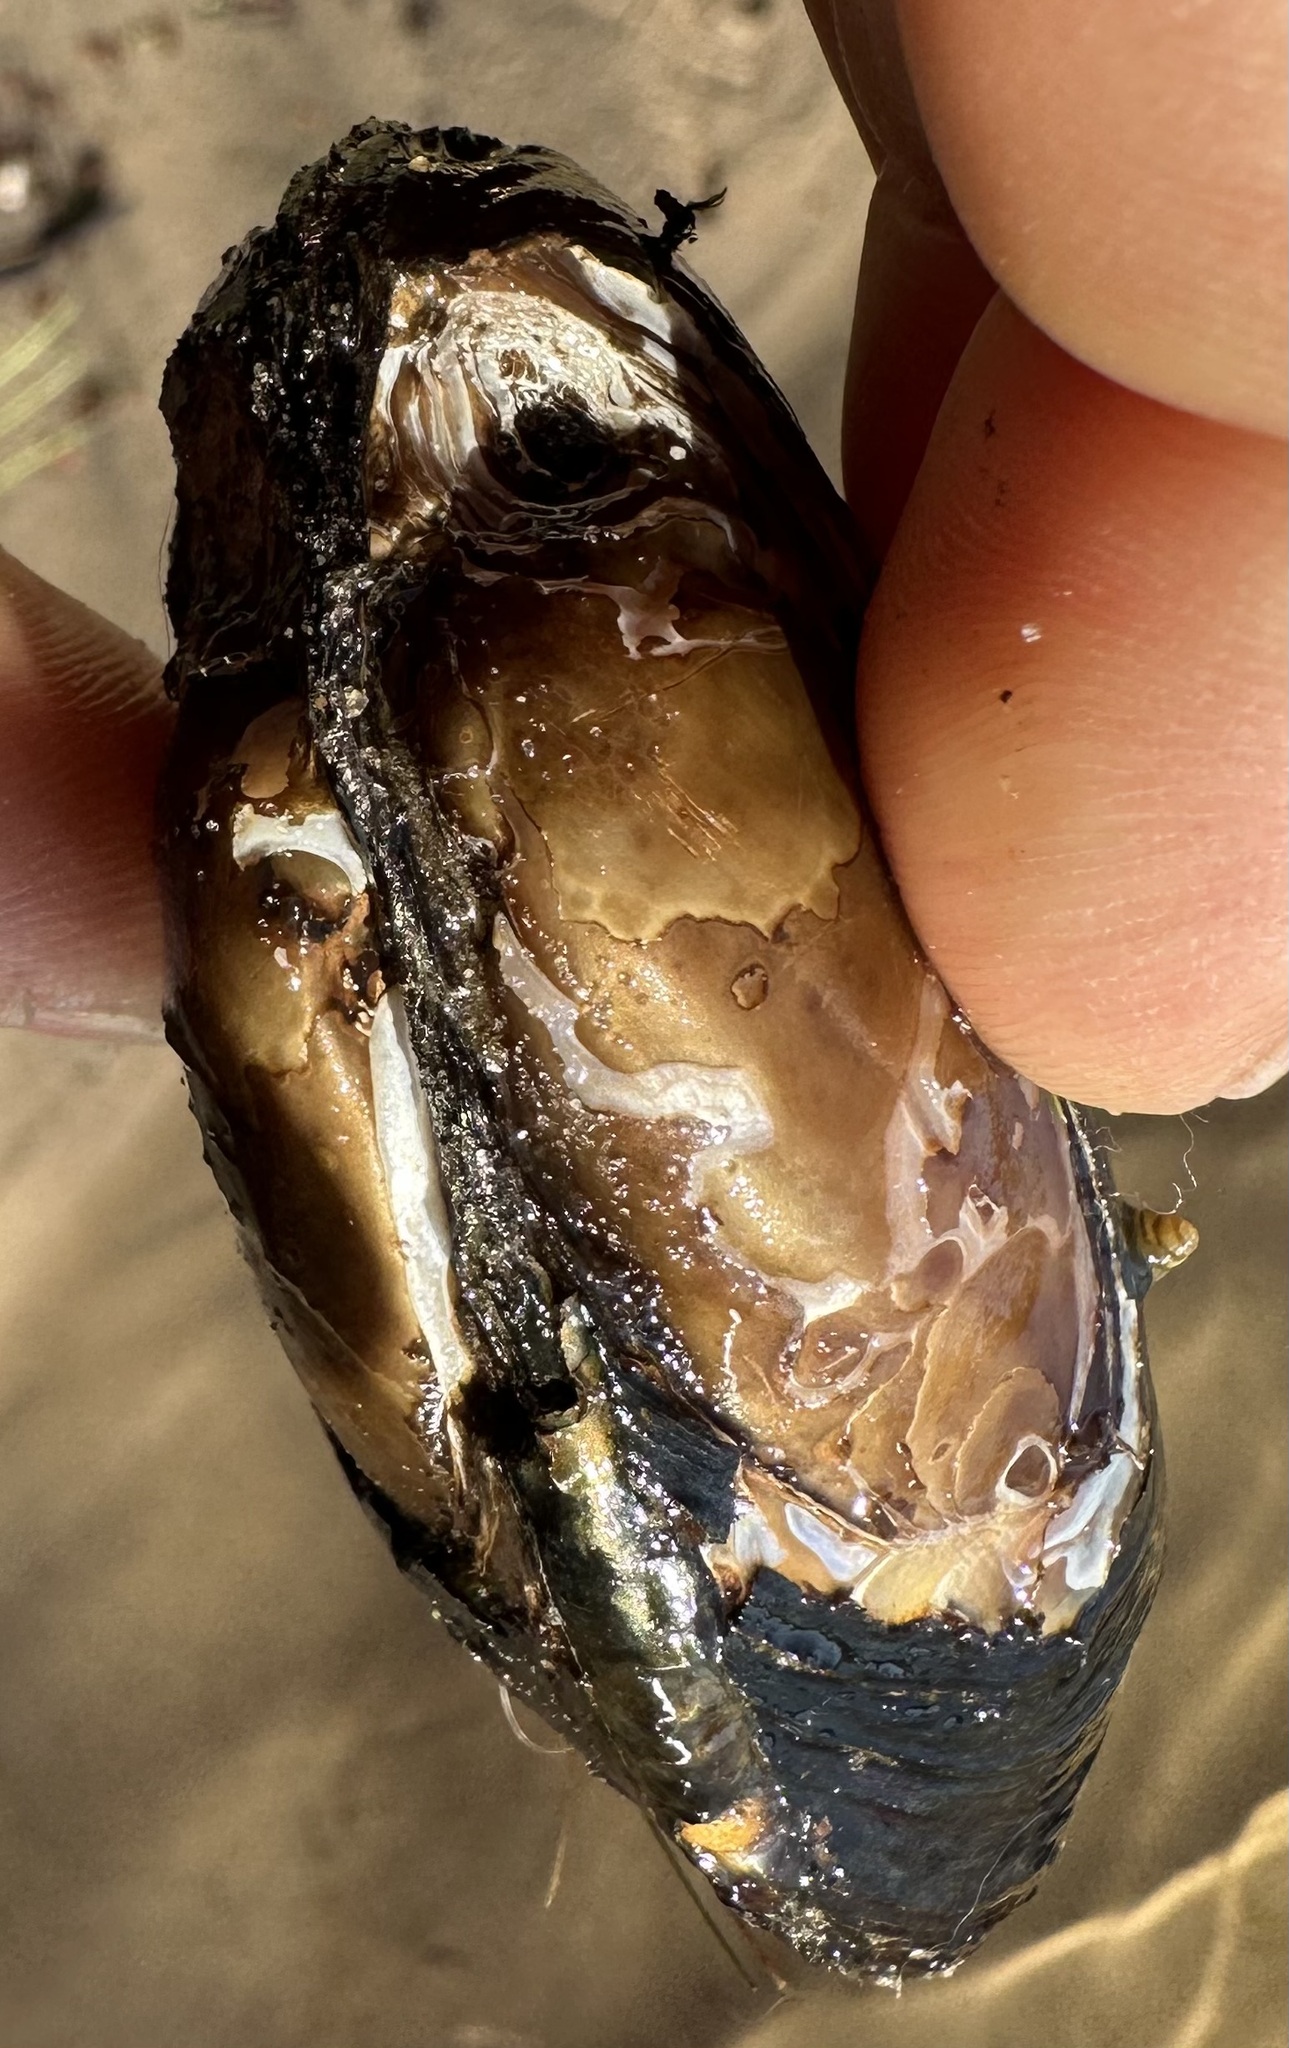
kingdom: Animalia
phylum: Mollusca
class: Bivalvia
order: Unionida
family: Unionidae
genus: Elliptio
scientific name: Elliptio complanata
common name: Eastern elliptio
